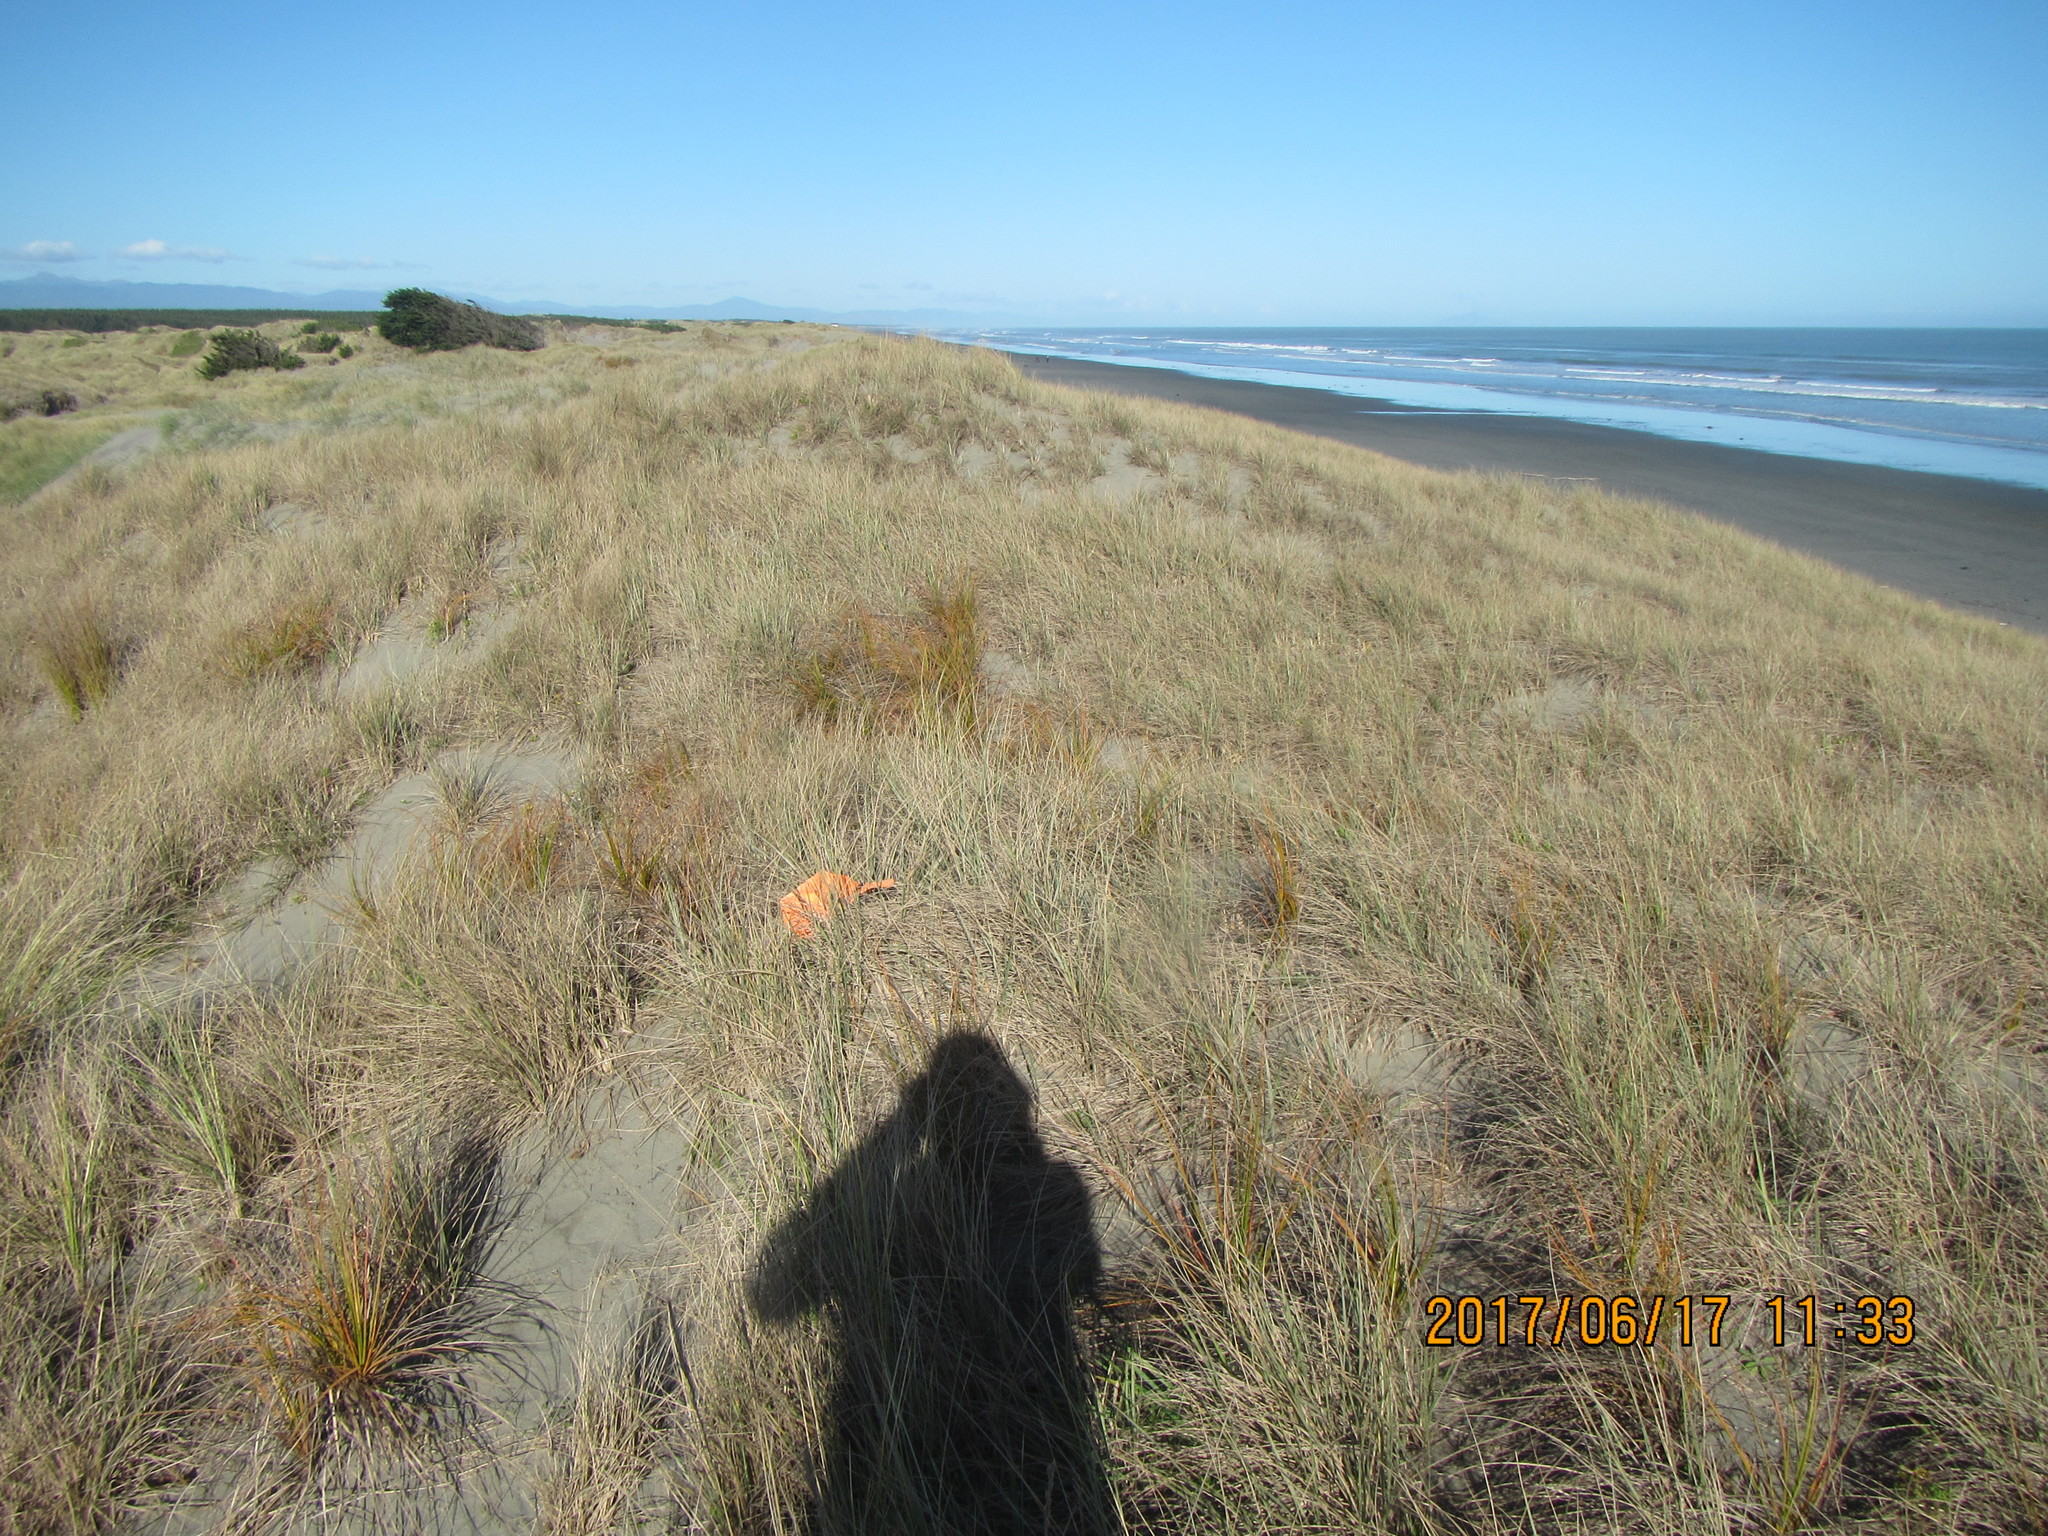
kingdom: Plantae
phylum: Tracheophyta
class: Magnoliopsida
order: Solanales
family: Convolvulaceae
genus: Calystegia
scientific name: Calystegia soldanella
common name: Sea bindweed
